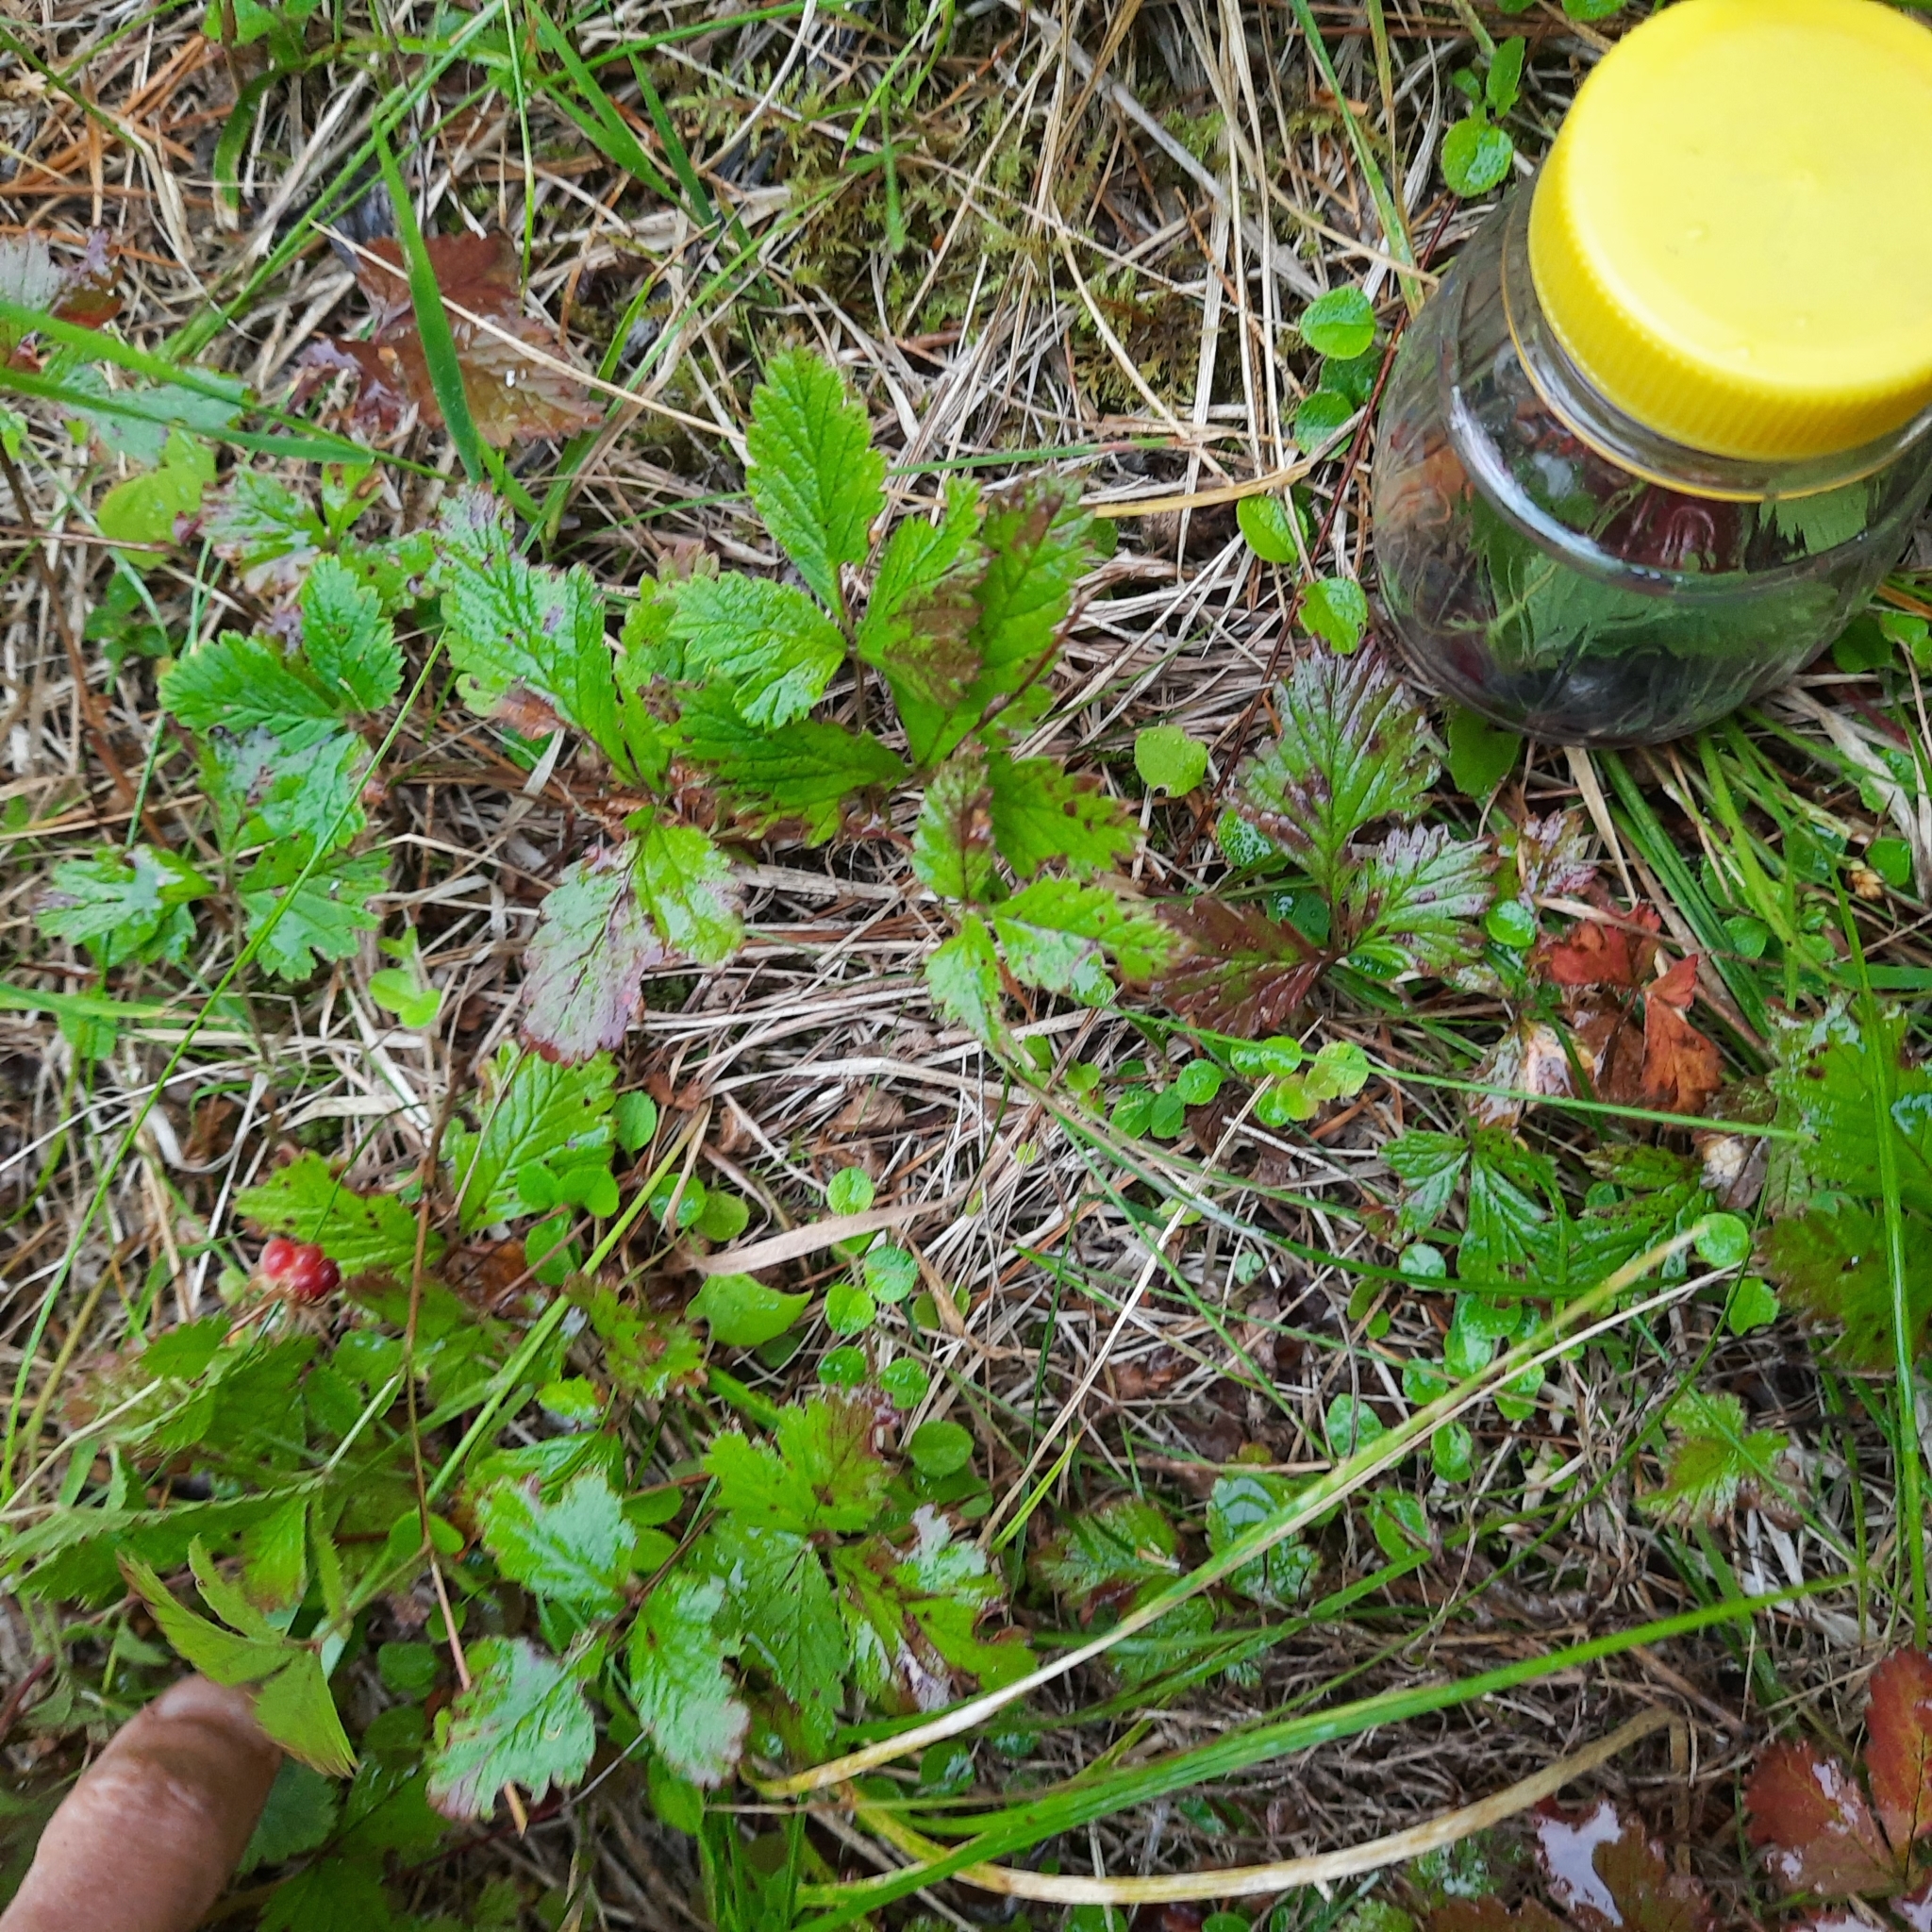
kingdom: Plantae
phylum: Tracheophyta
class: Magnoliopsida
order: Rosales
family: Rosaceae
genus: Rubus
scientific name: Rubus arcticus
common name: Arctic bramble
